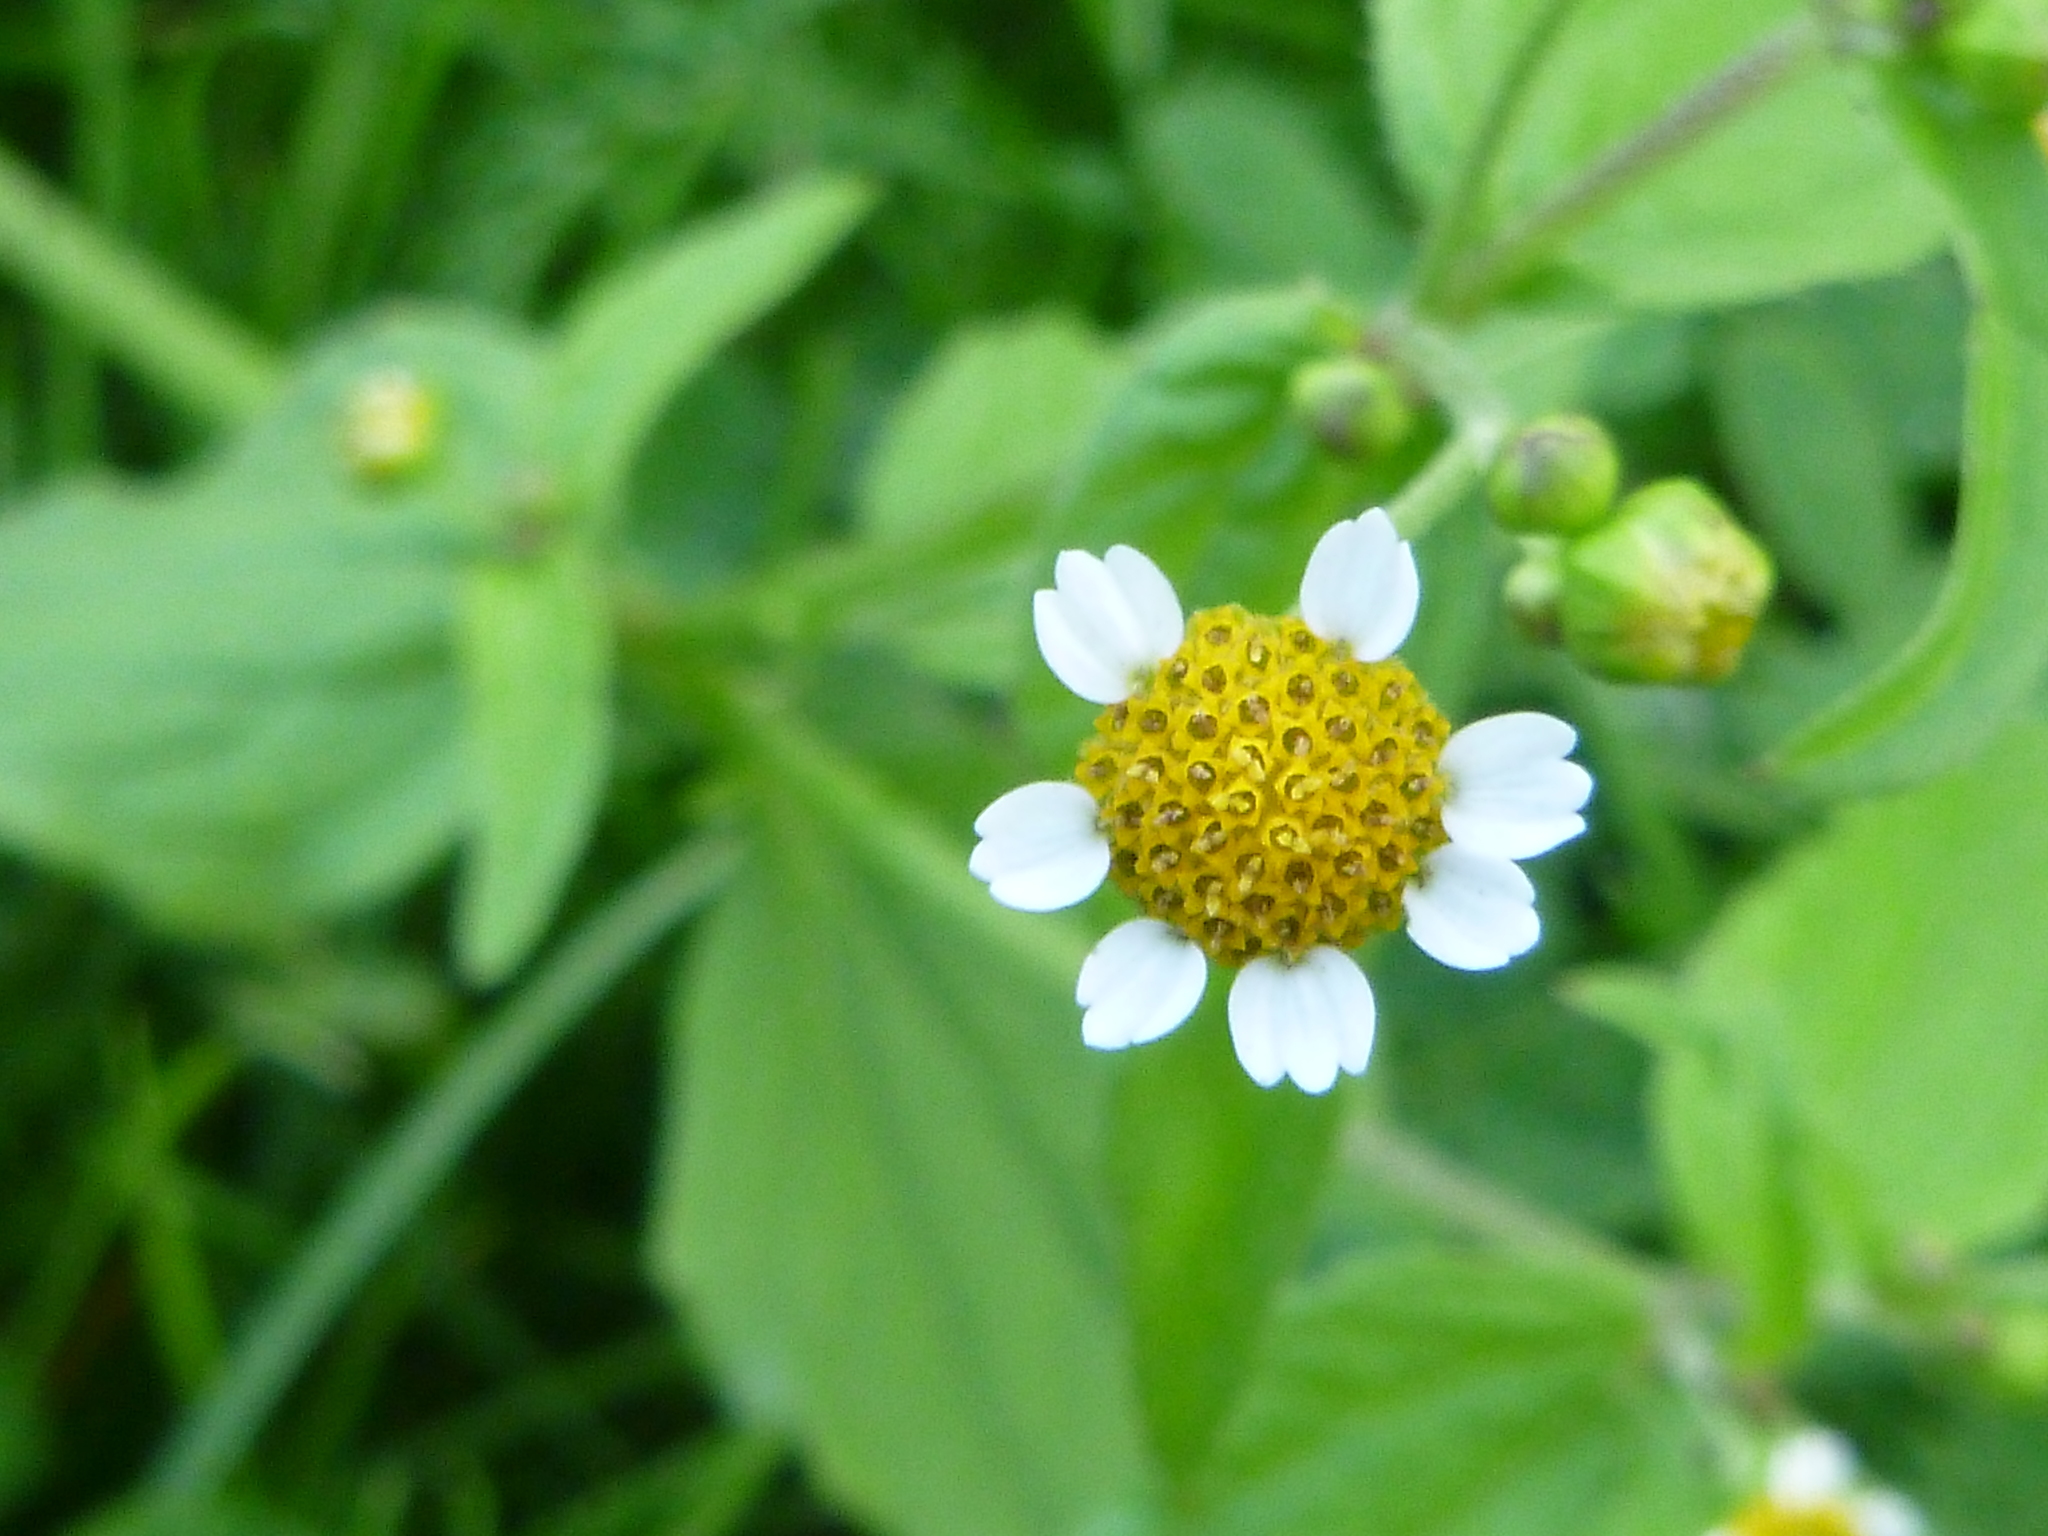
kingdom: Plantae
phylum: Tracheophyta
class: Magnoliopsida
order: Asterales
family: Asteraceae
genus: Galinsoga
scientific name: Galinsoga parviflora
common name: Gallant soldier
